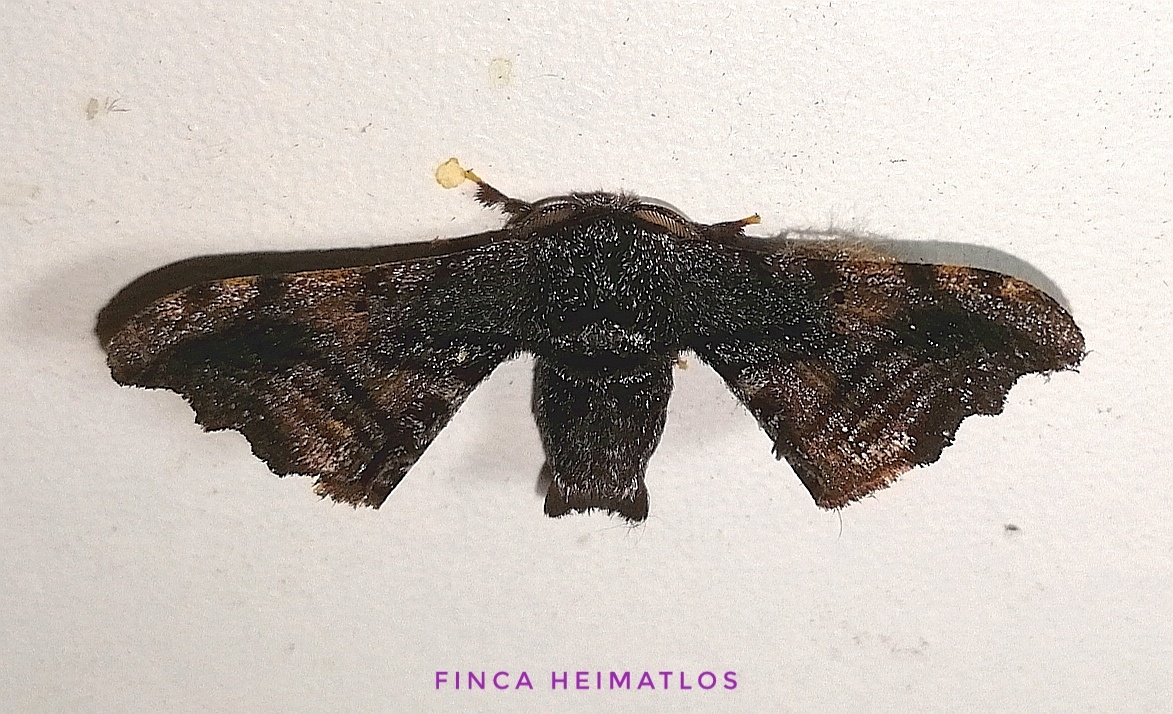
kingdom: Animalia
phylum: Arthropoda
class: Insecta
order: Lepidoptera
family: Bombycidae
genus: Quentalia
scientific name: Quentalia excisa
